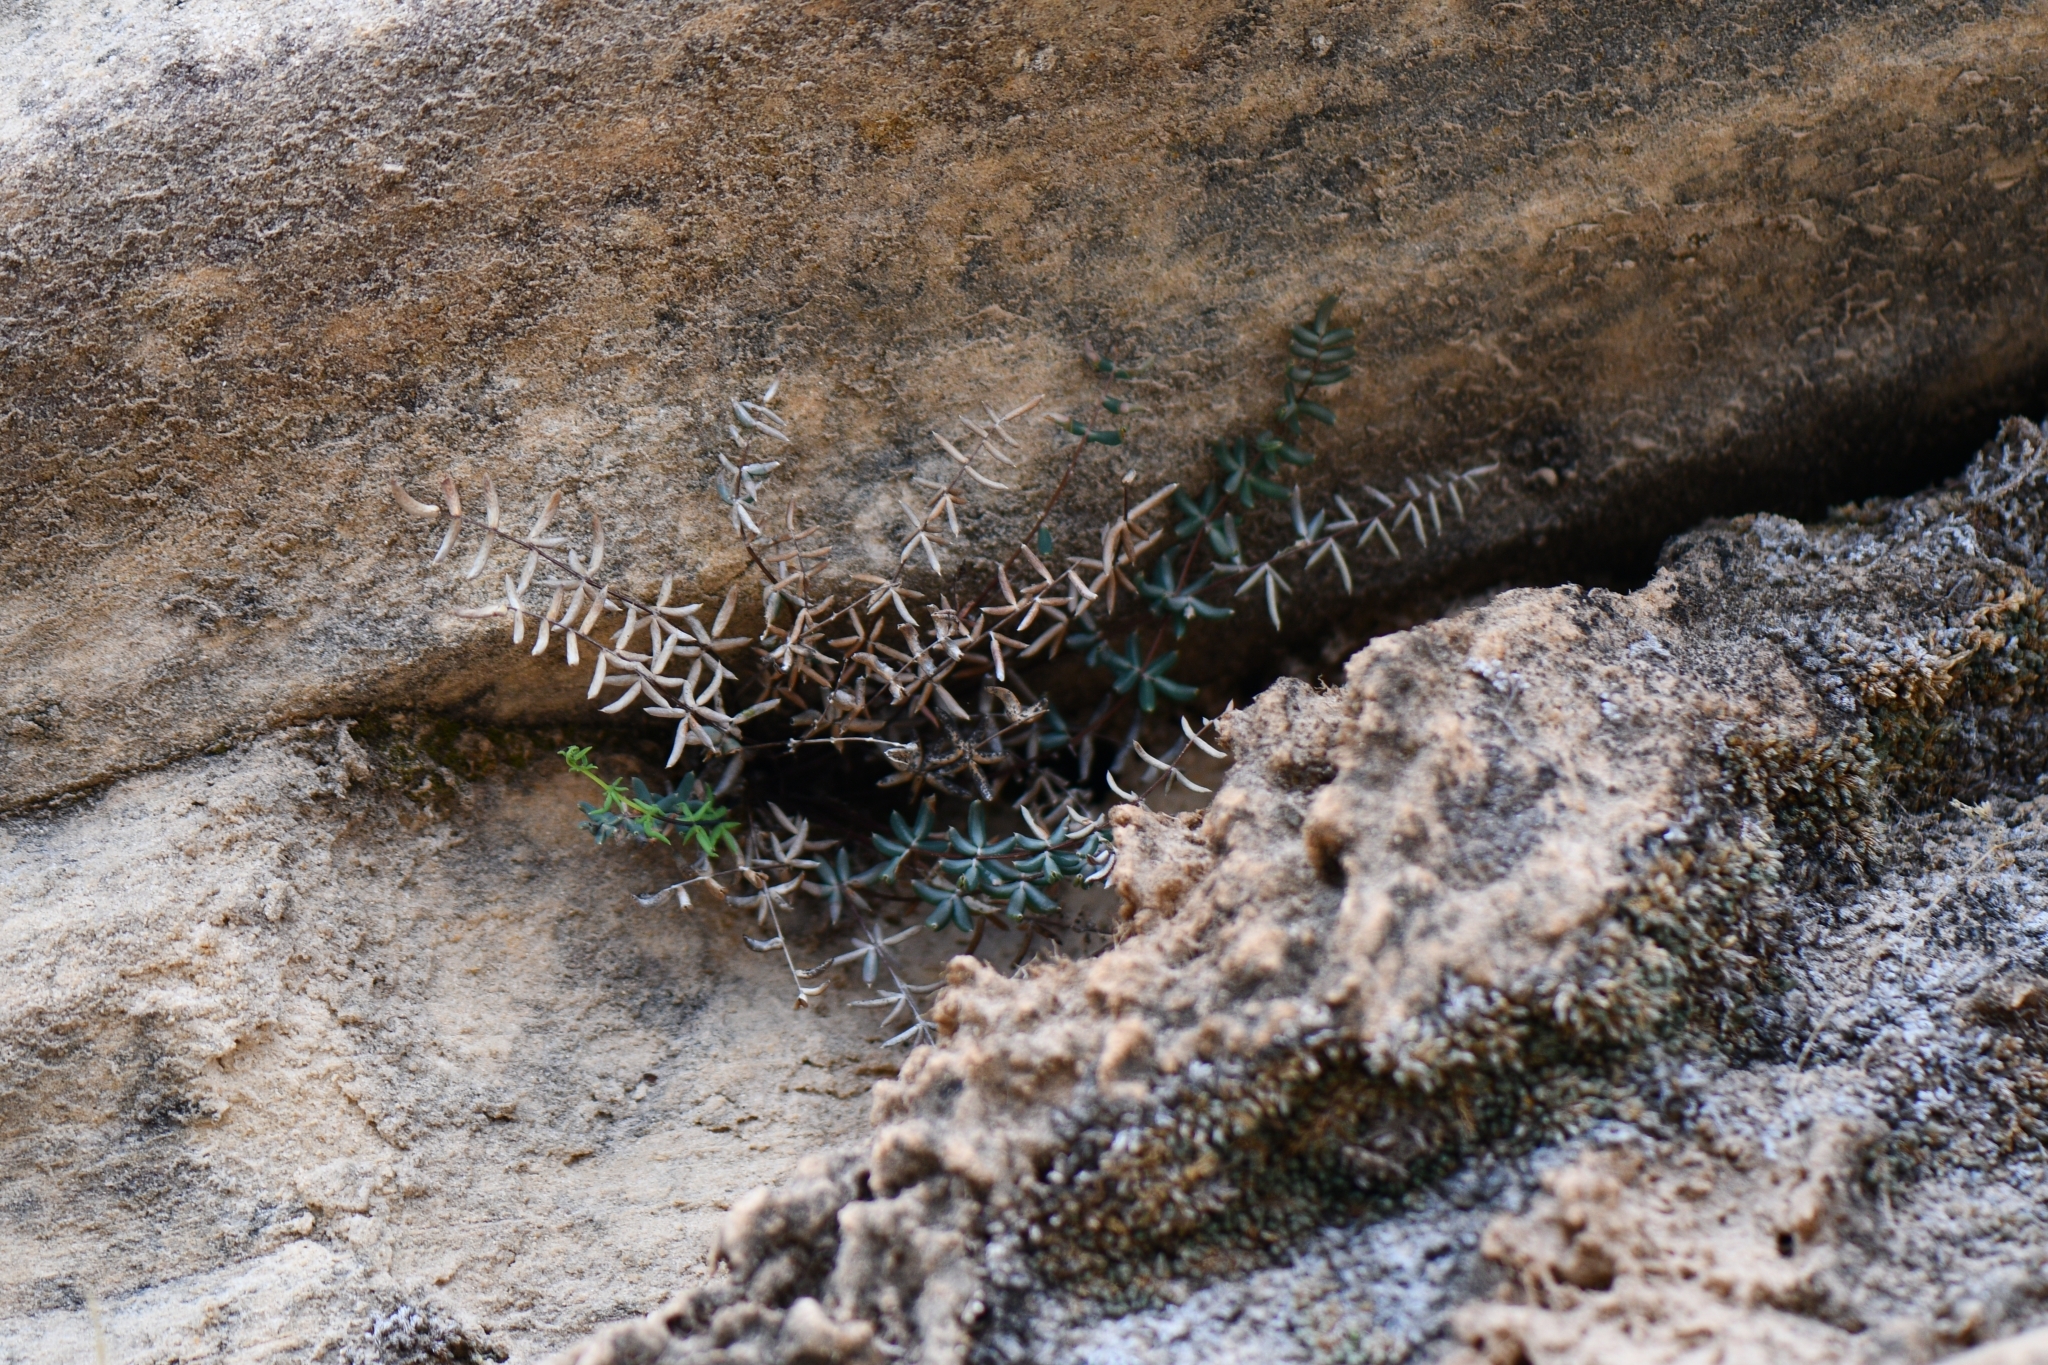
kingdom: Plantae
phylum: Tracheophyta
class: Polypodiopsida
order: Polypodiales
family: Pteridaceae
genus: Pellaea
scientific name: Pellaea wrightiana
